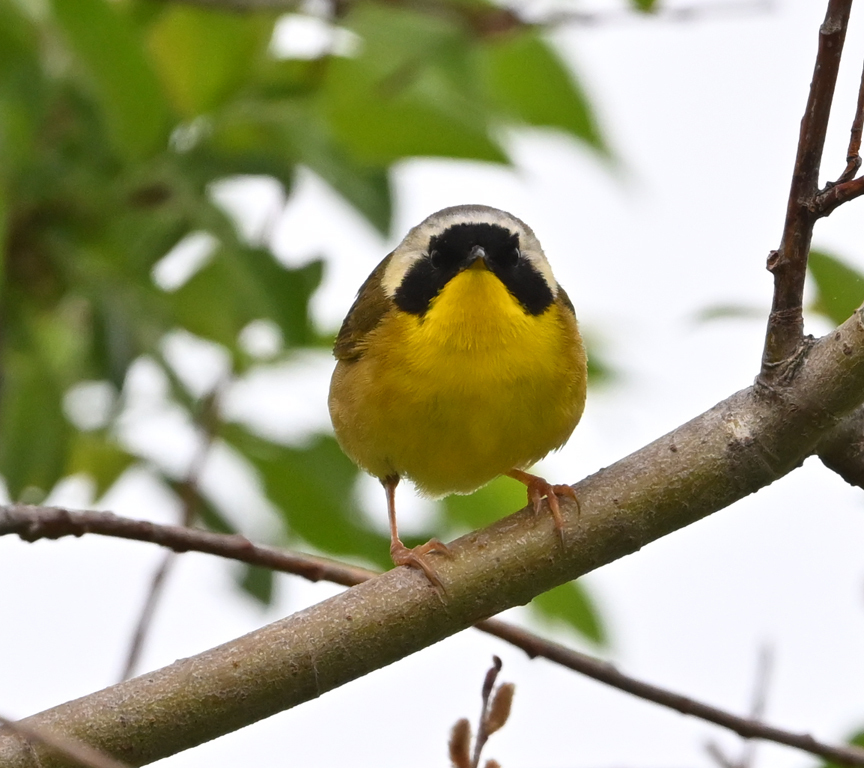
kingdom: Animalia
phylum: Chordata
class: Aves
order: Passeriformes
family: Parulidae
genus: Geothlypis
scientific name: Geothlypis trichas
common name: Common yellowthroat
